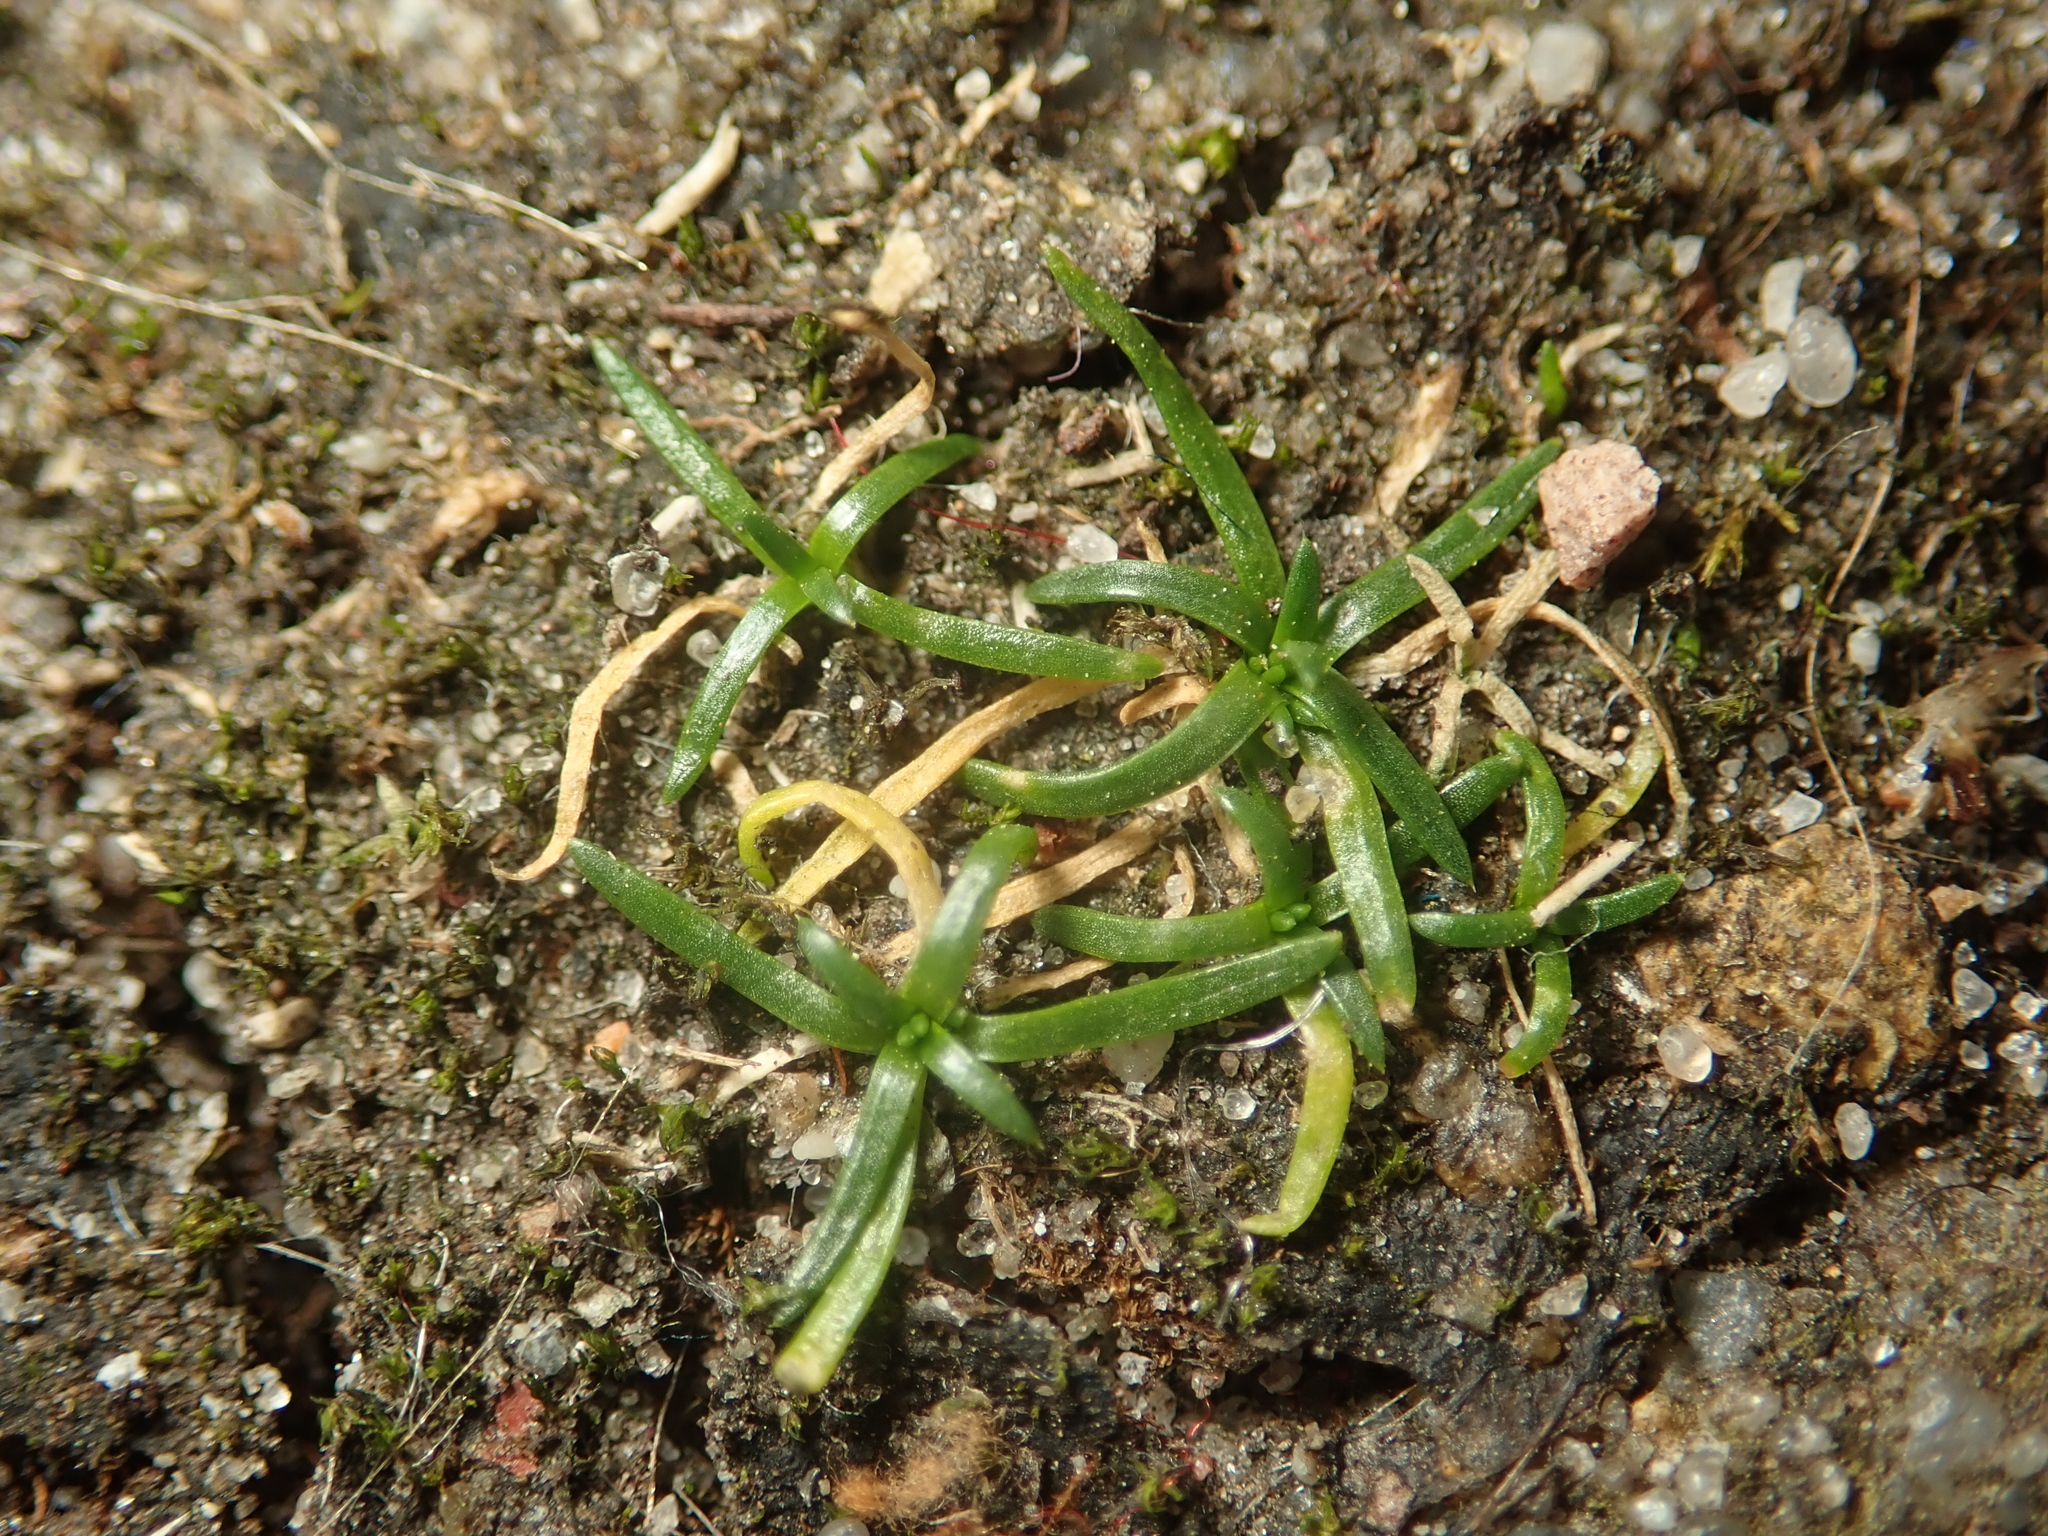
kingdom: Plantae
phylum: Tracheophyta
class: Magnoliopsida
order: Caryophyllales
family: Caryophyllaceae
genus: Sagina
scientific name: Sagina procumbens
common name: Procumbent pearlwort
